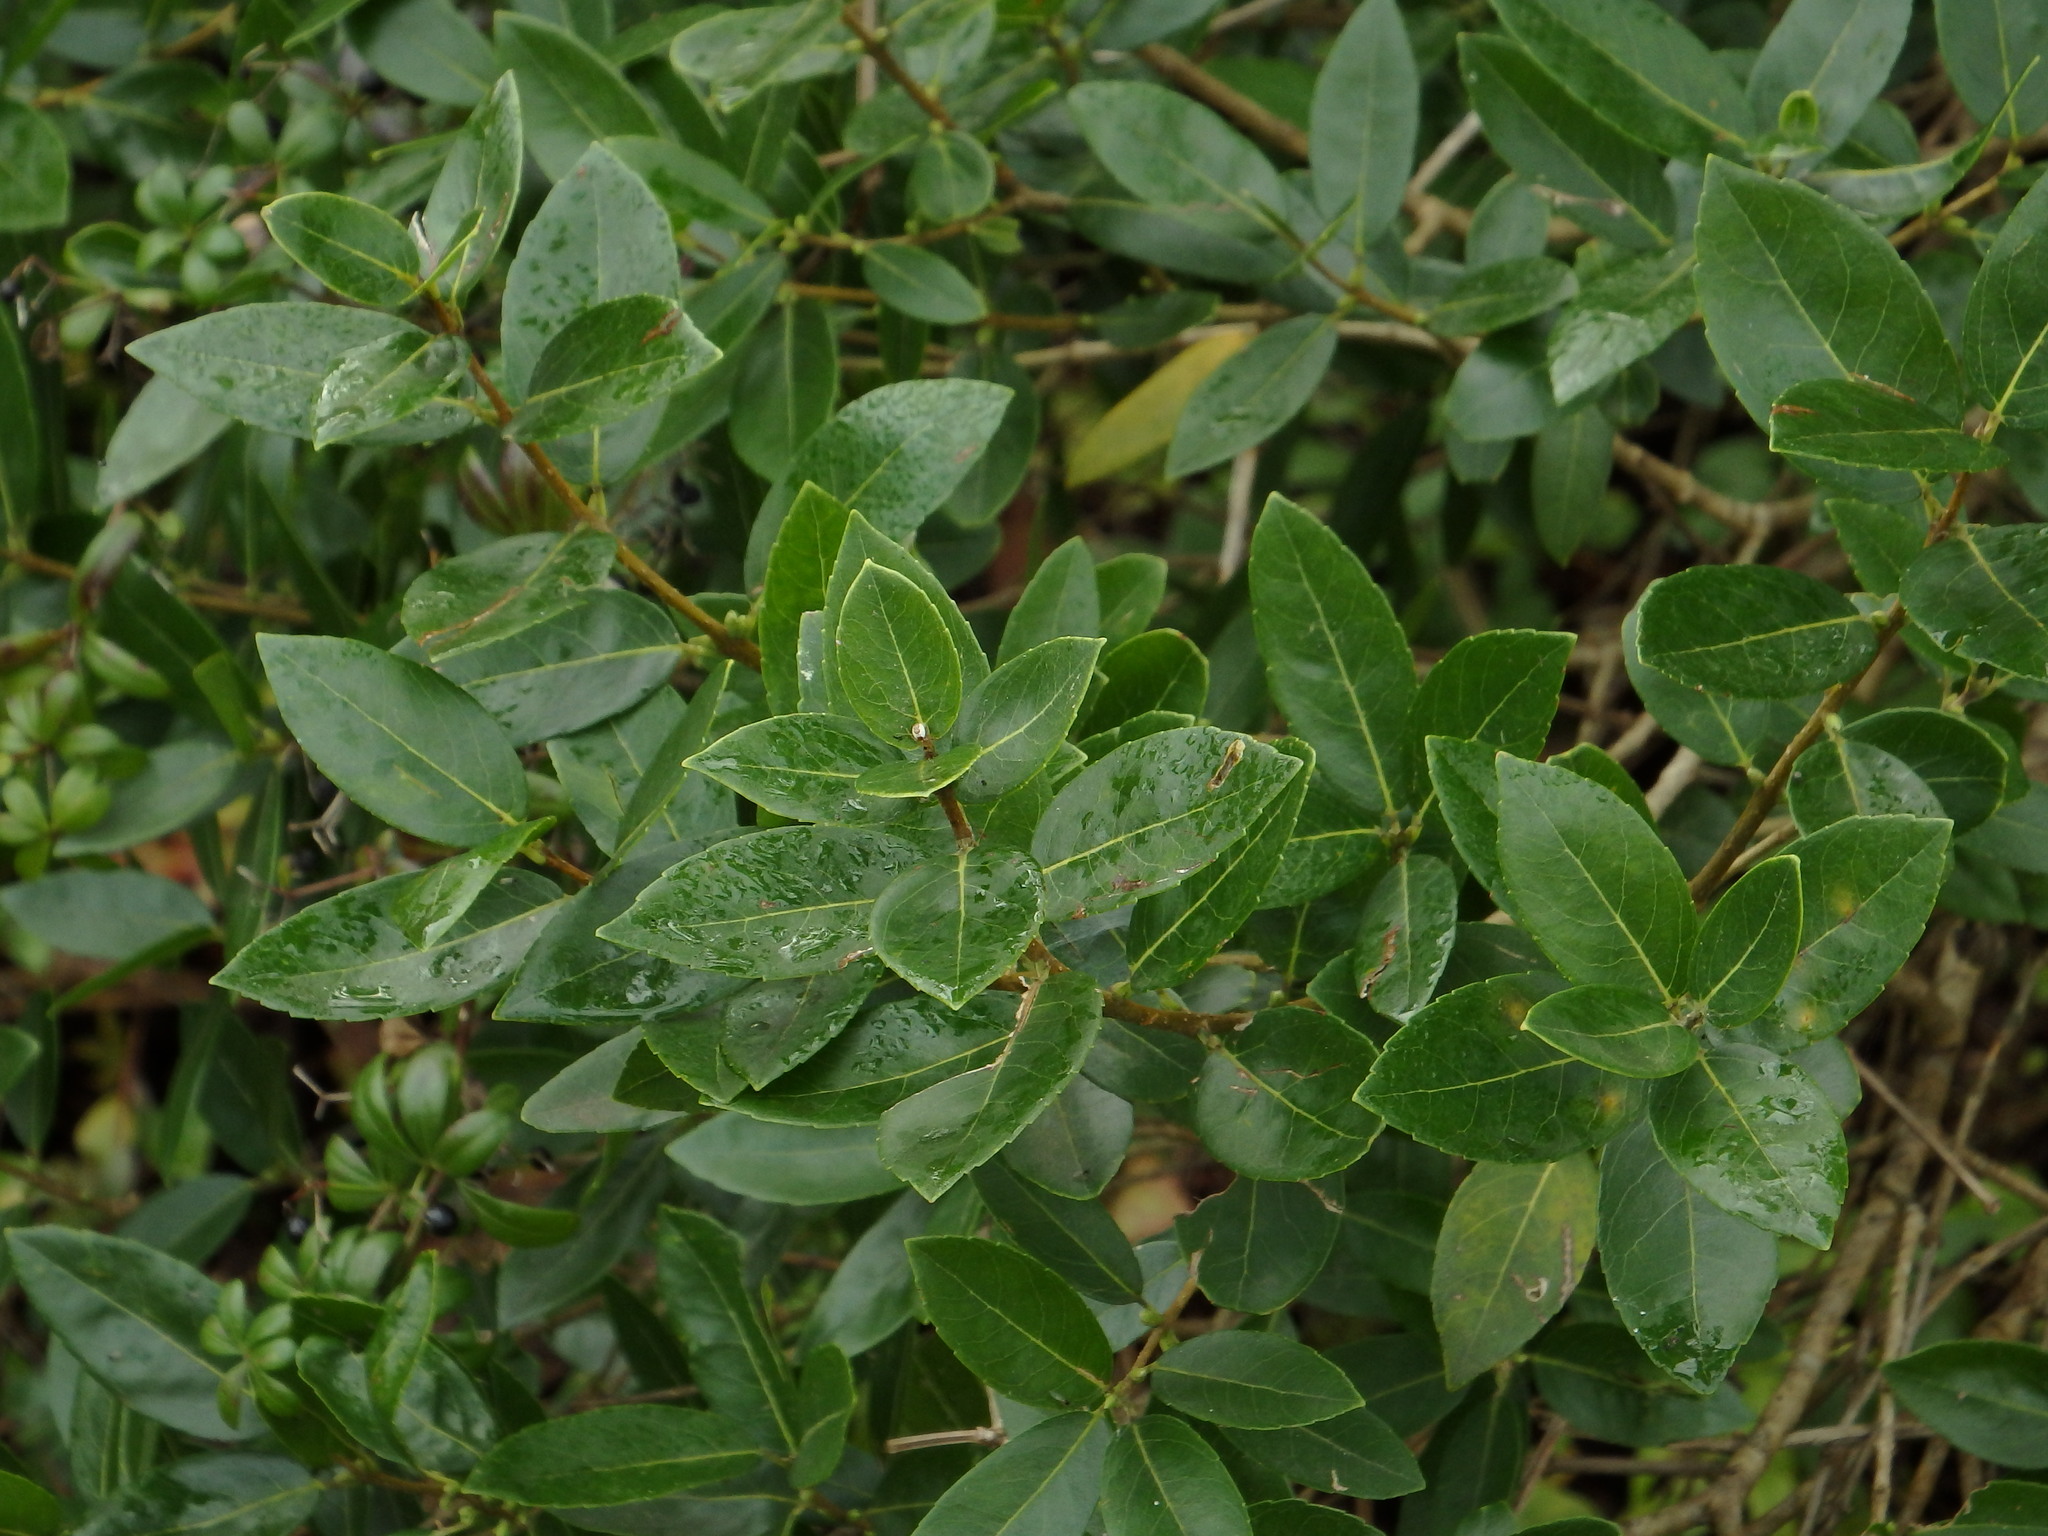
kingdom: Plantae
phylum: Tracheophyta
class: Magnoliopsida
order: Lamiales
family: Oleaceae
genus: Phillyrea
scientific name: Phillyrea latifolia
